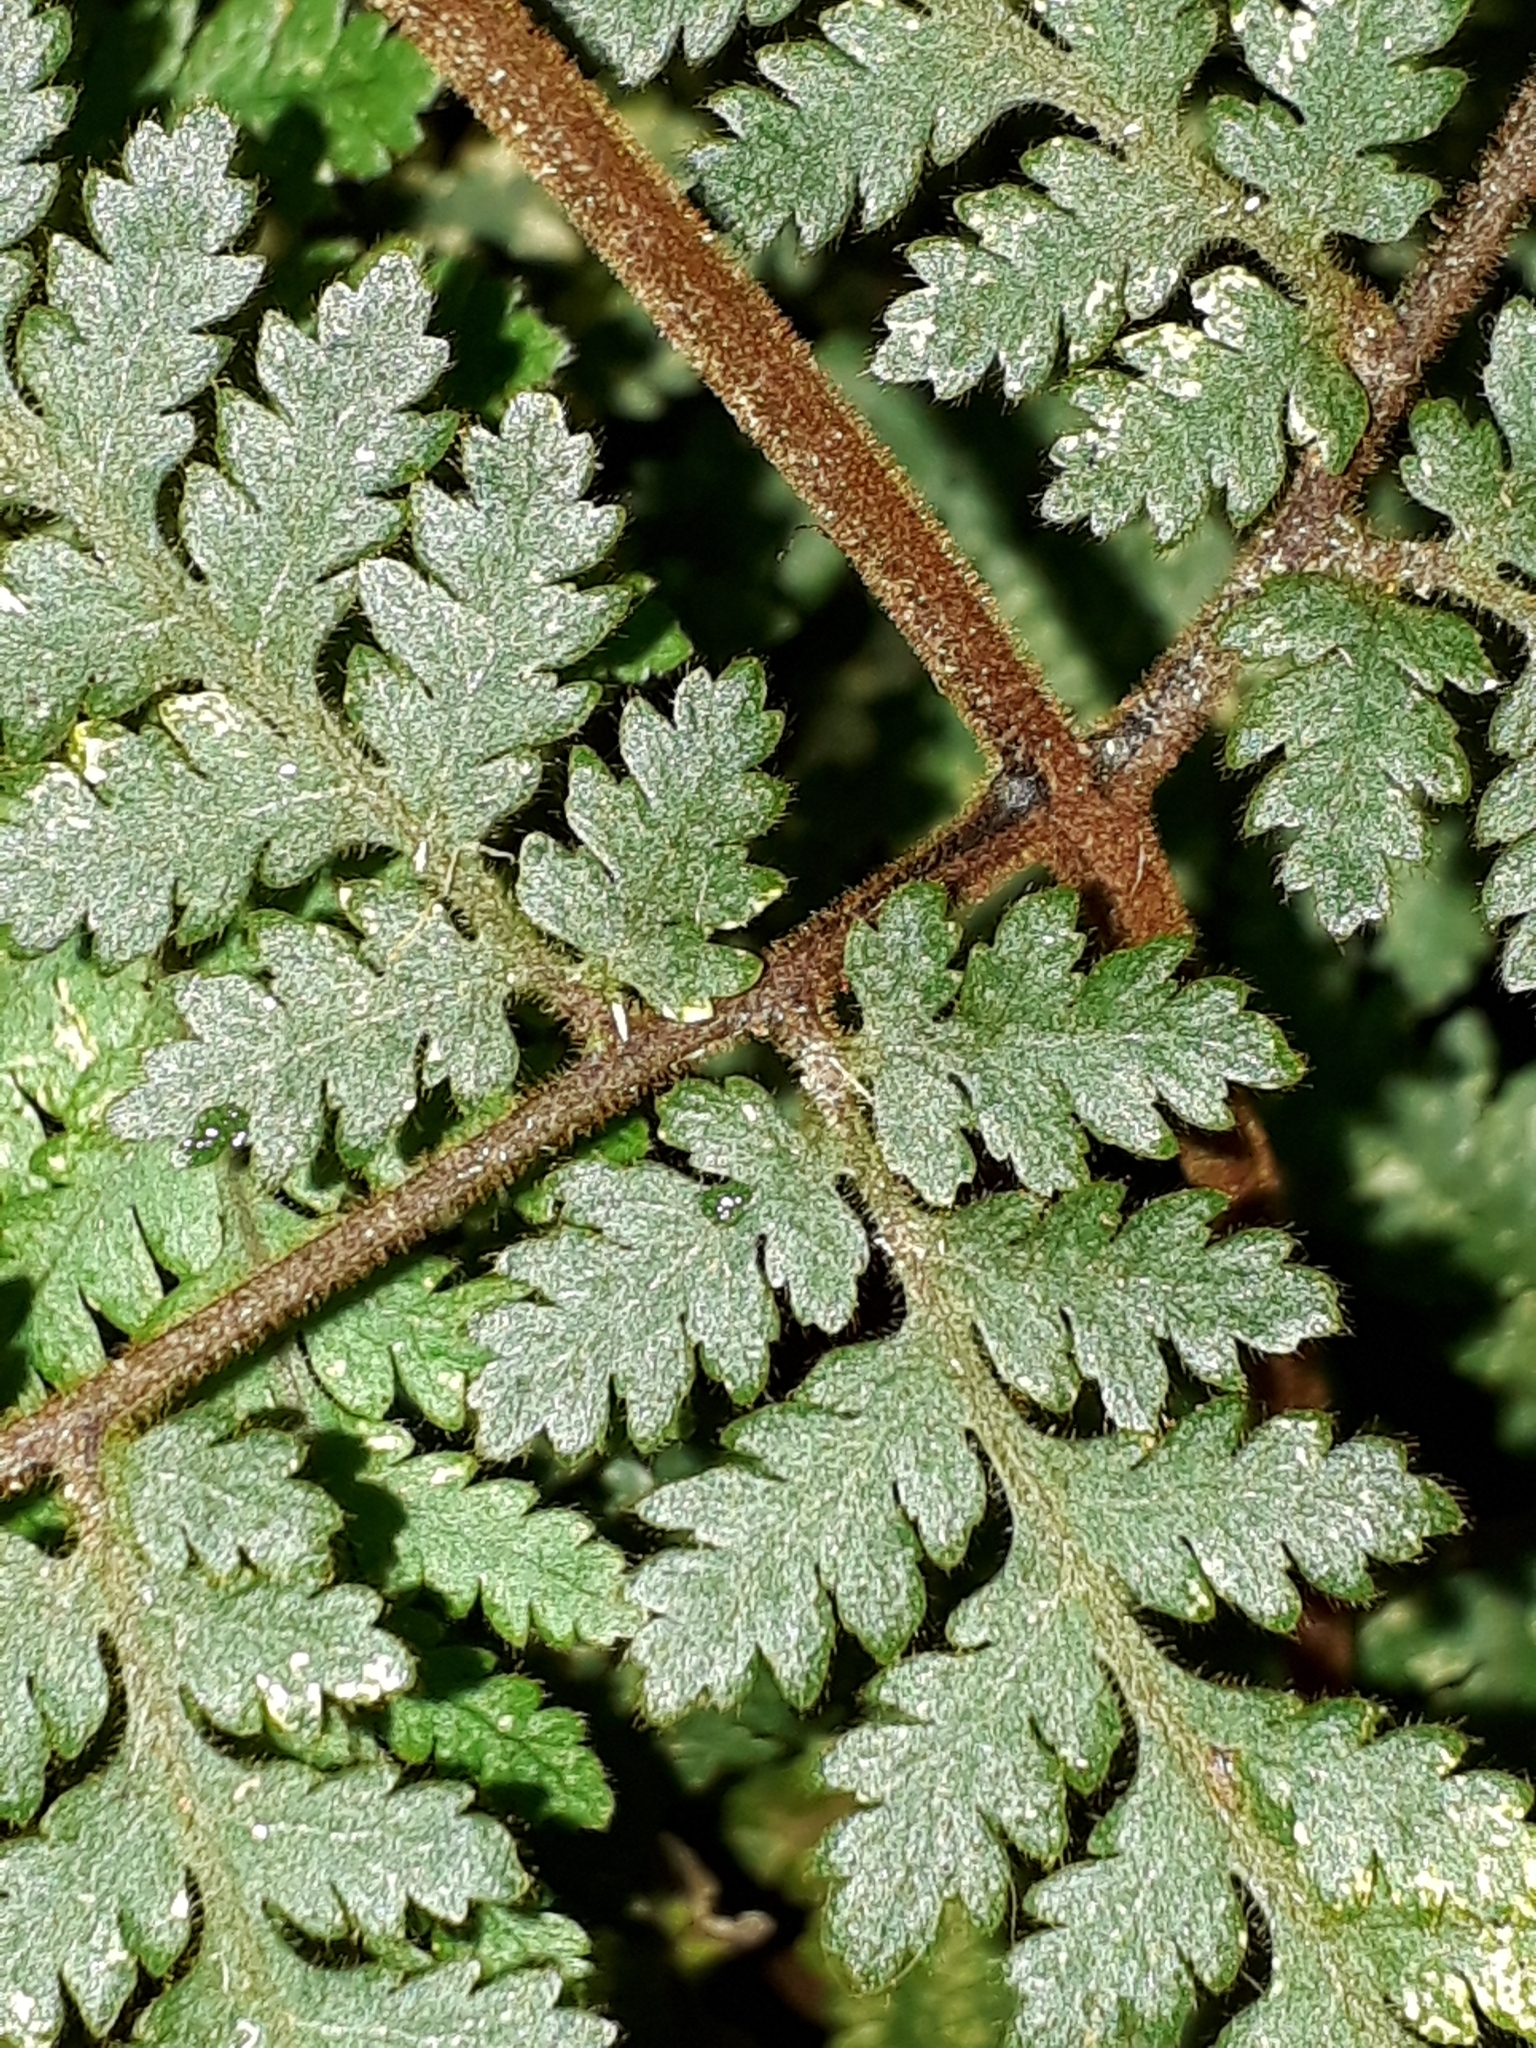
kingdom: Plantae
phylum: Tracheophyta
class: Polypodiopsida
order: Polypodiales
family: Dryopteridaceae
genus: Lastreopsis
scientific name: Lastreopsis velutina
